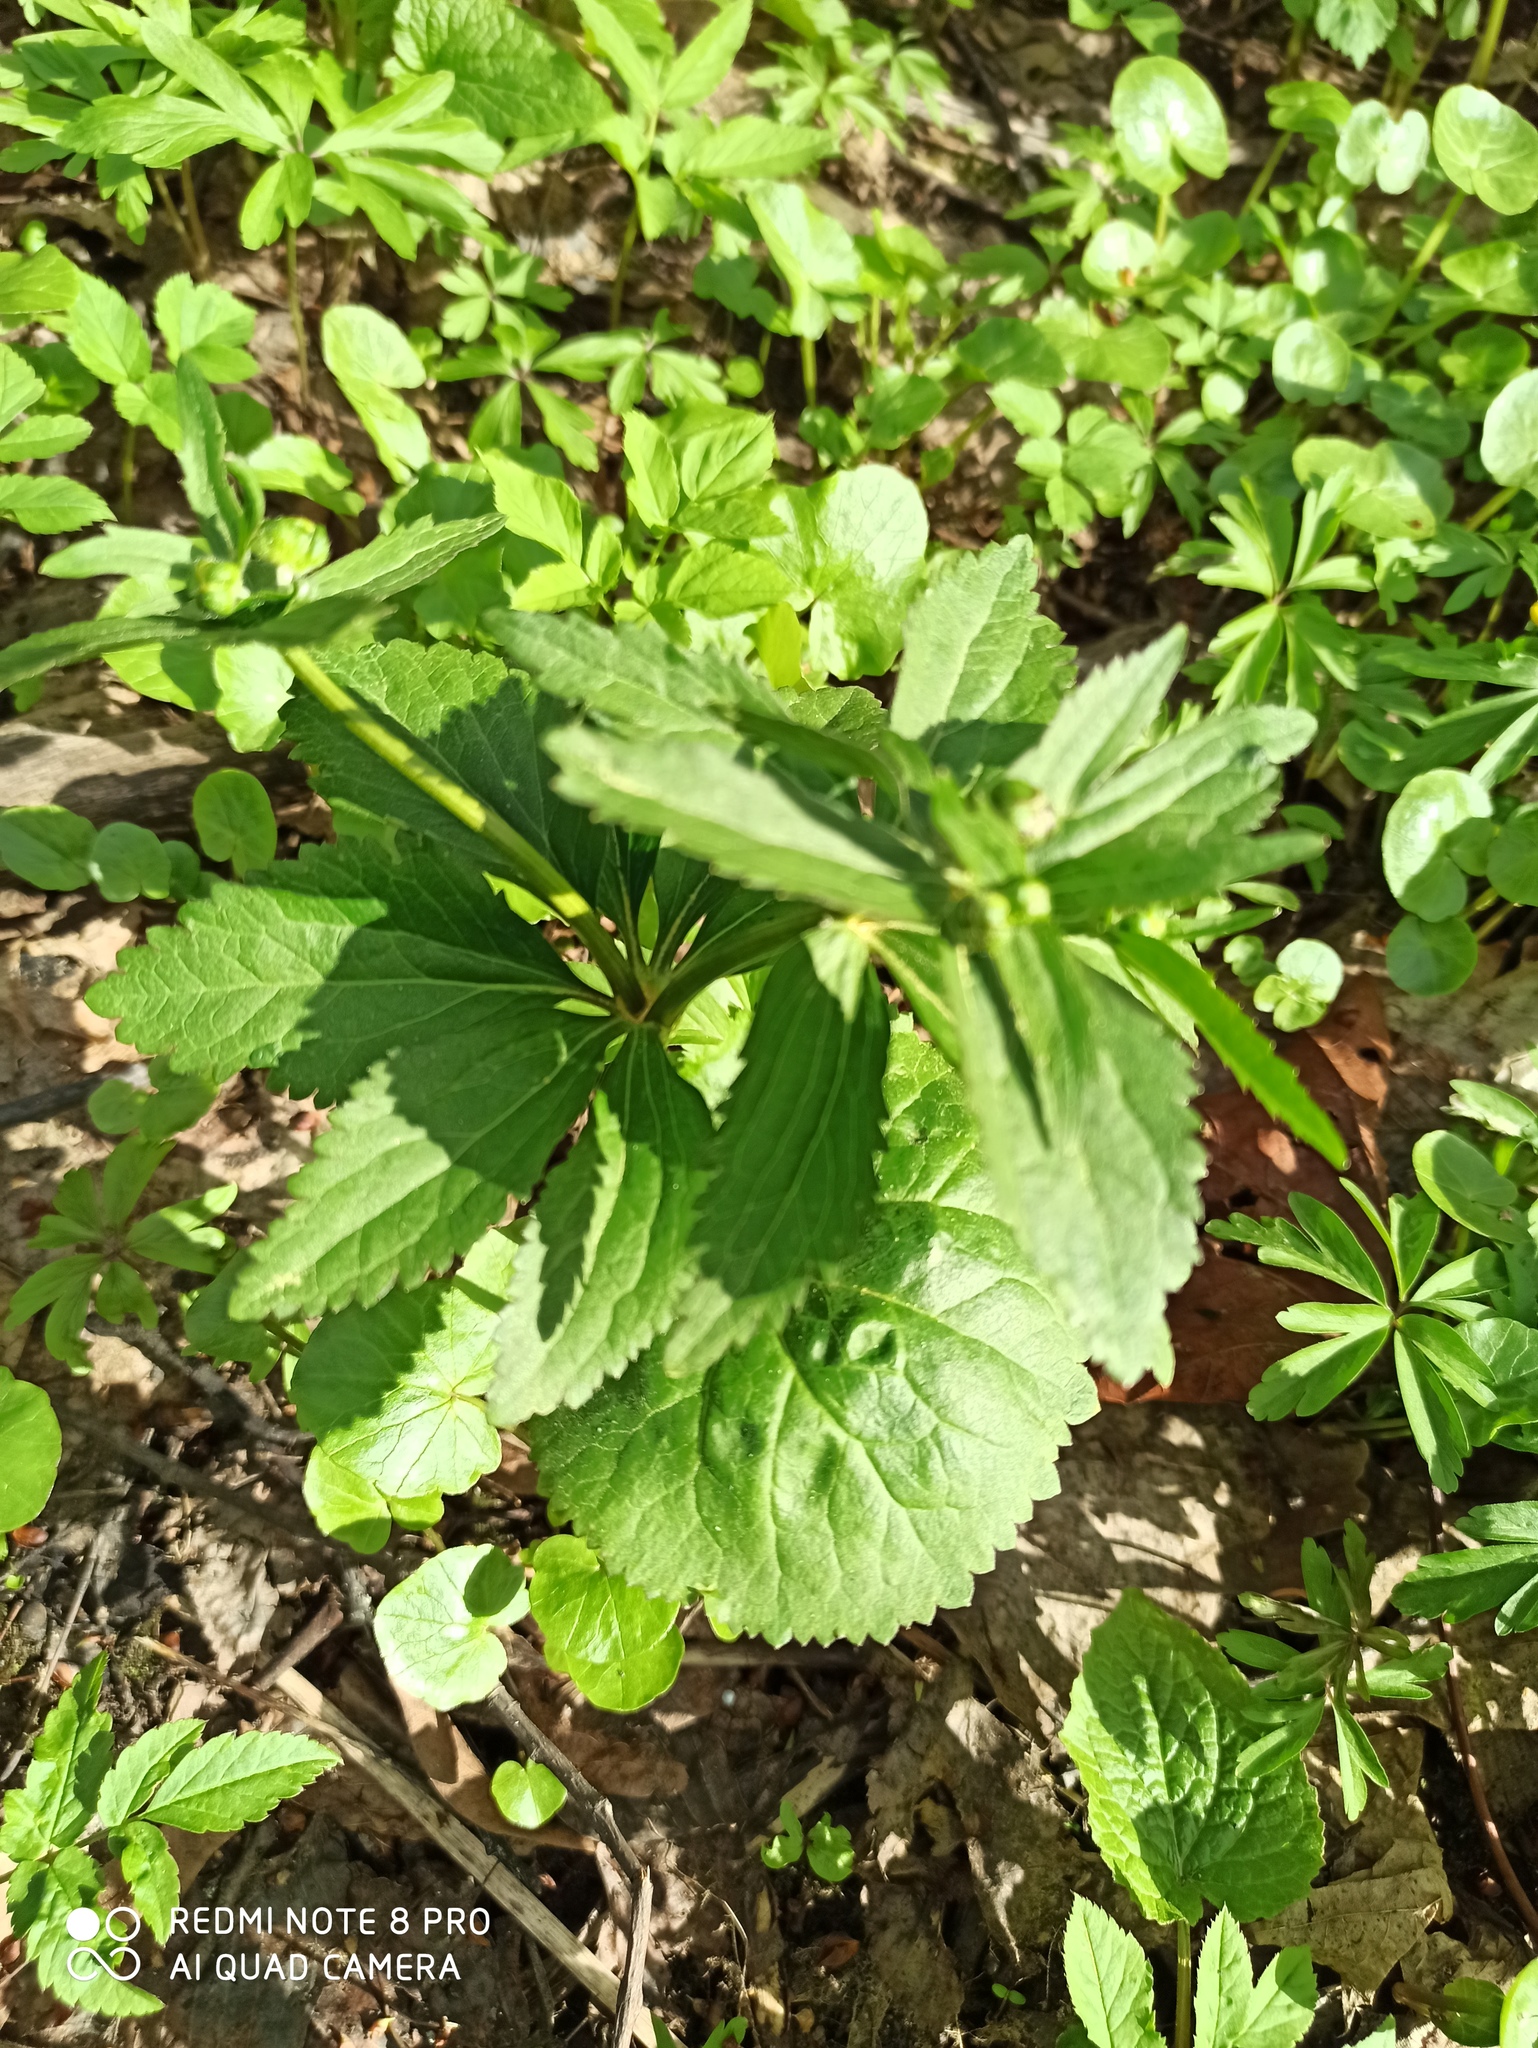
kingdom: Plantae
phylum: Tracheophyta
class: Magnoliopsida
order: Ranunculales
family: Ranunculaceae
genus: Ranunculus
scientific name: Ranunculus cassubicus
